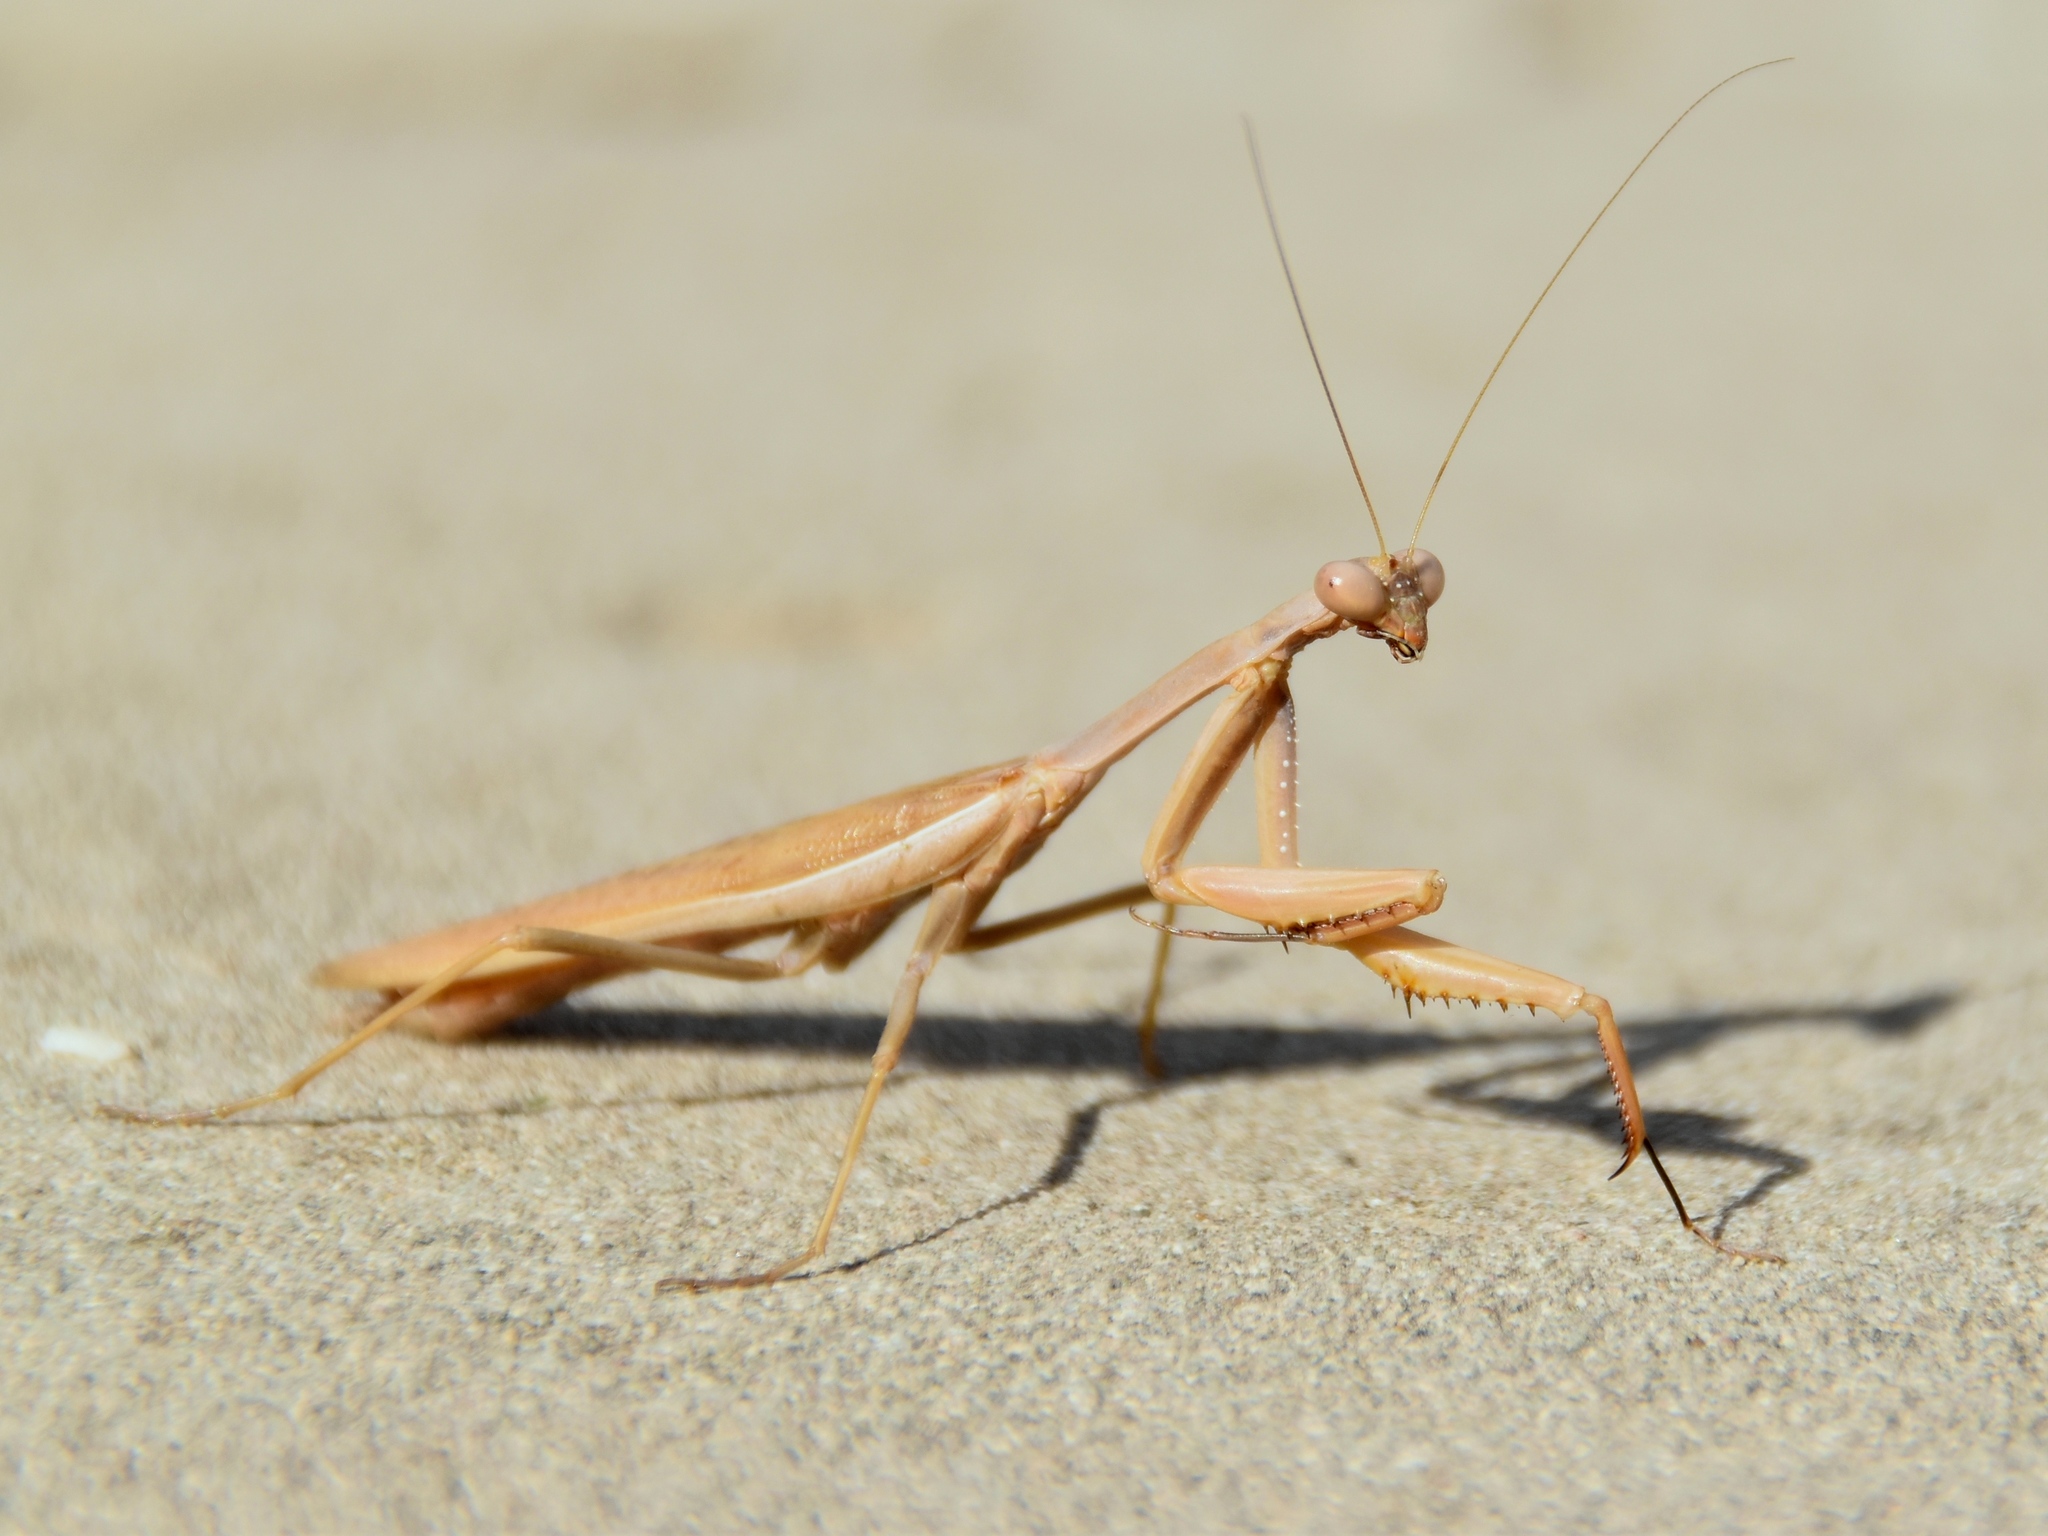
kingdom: Animalia
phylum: Arthropoda
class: Insecta
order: Mantodea
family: Eremiaphilidae
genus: Iris
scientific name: Iris oratoria
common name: Mediterranean mantis
